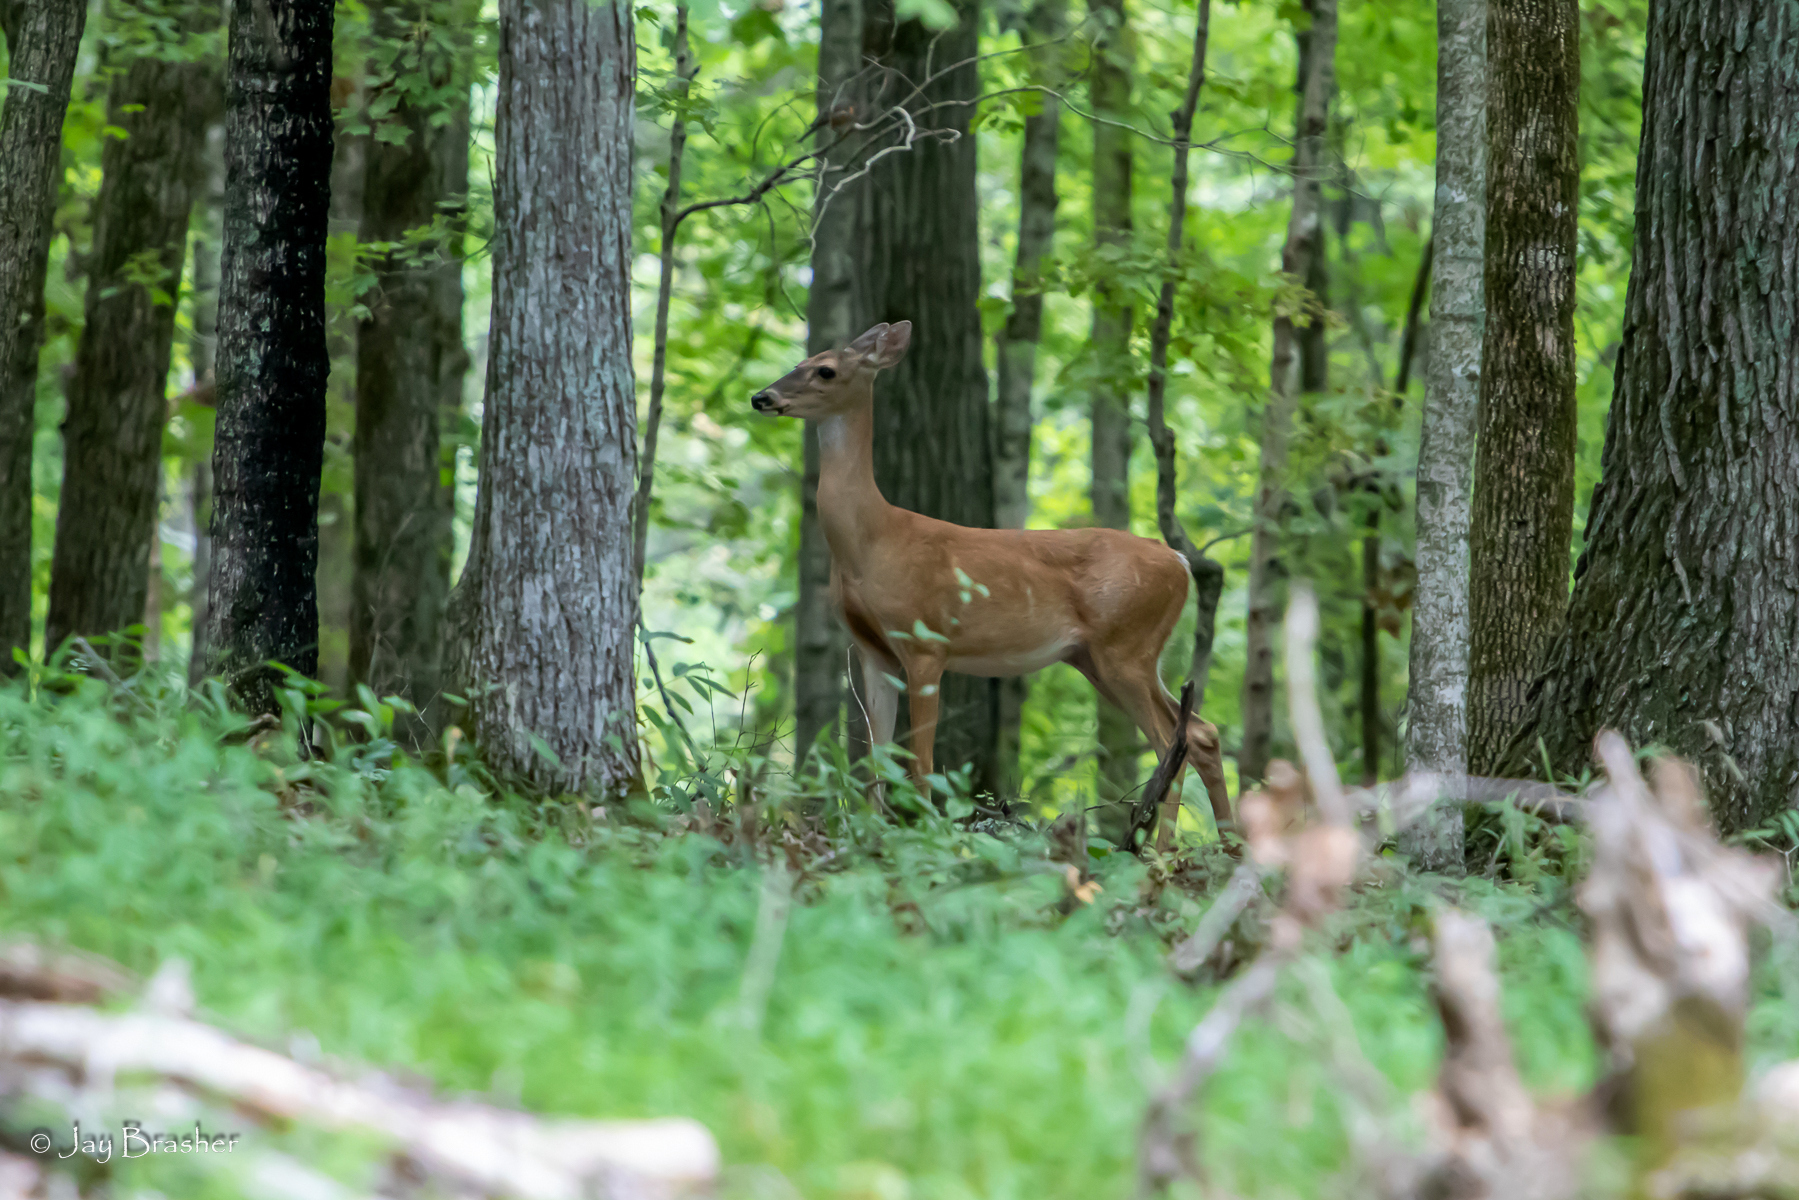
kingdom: Animalia
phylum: Chordata
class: Mammalia
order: Artiodactyla
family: Cervidae
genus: Odocoileus
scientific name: Odocoileus virginianus
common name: White-tailed deer
